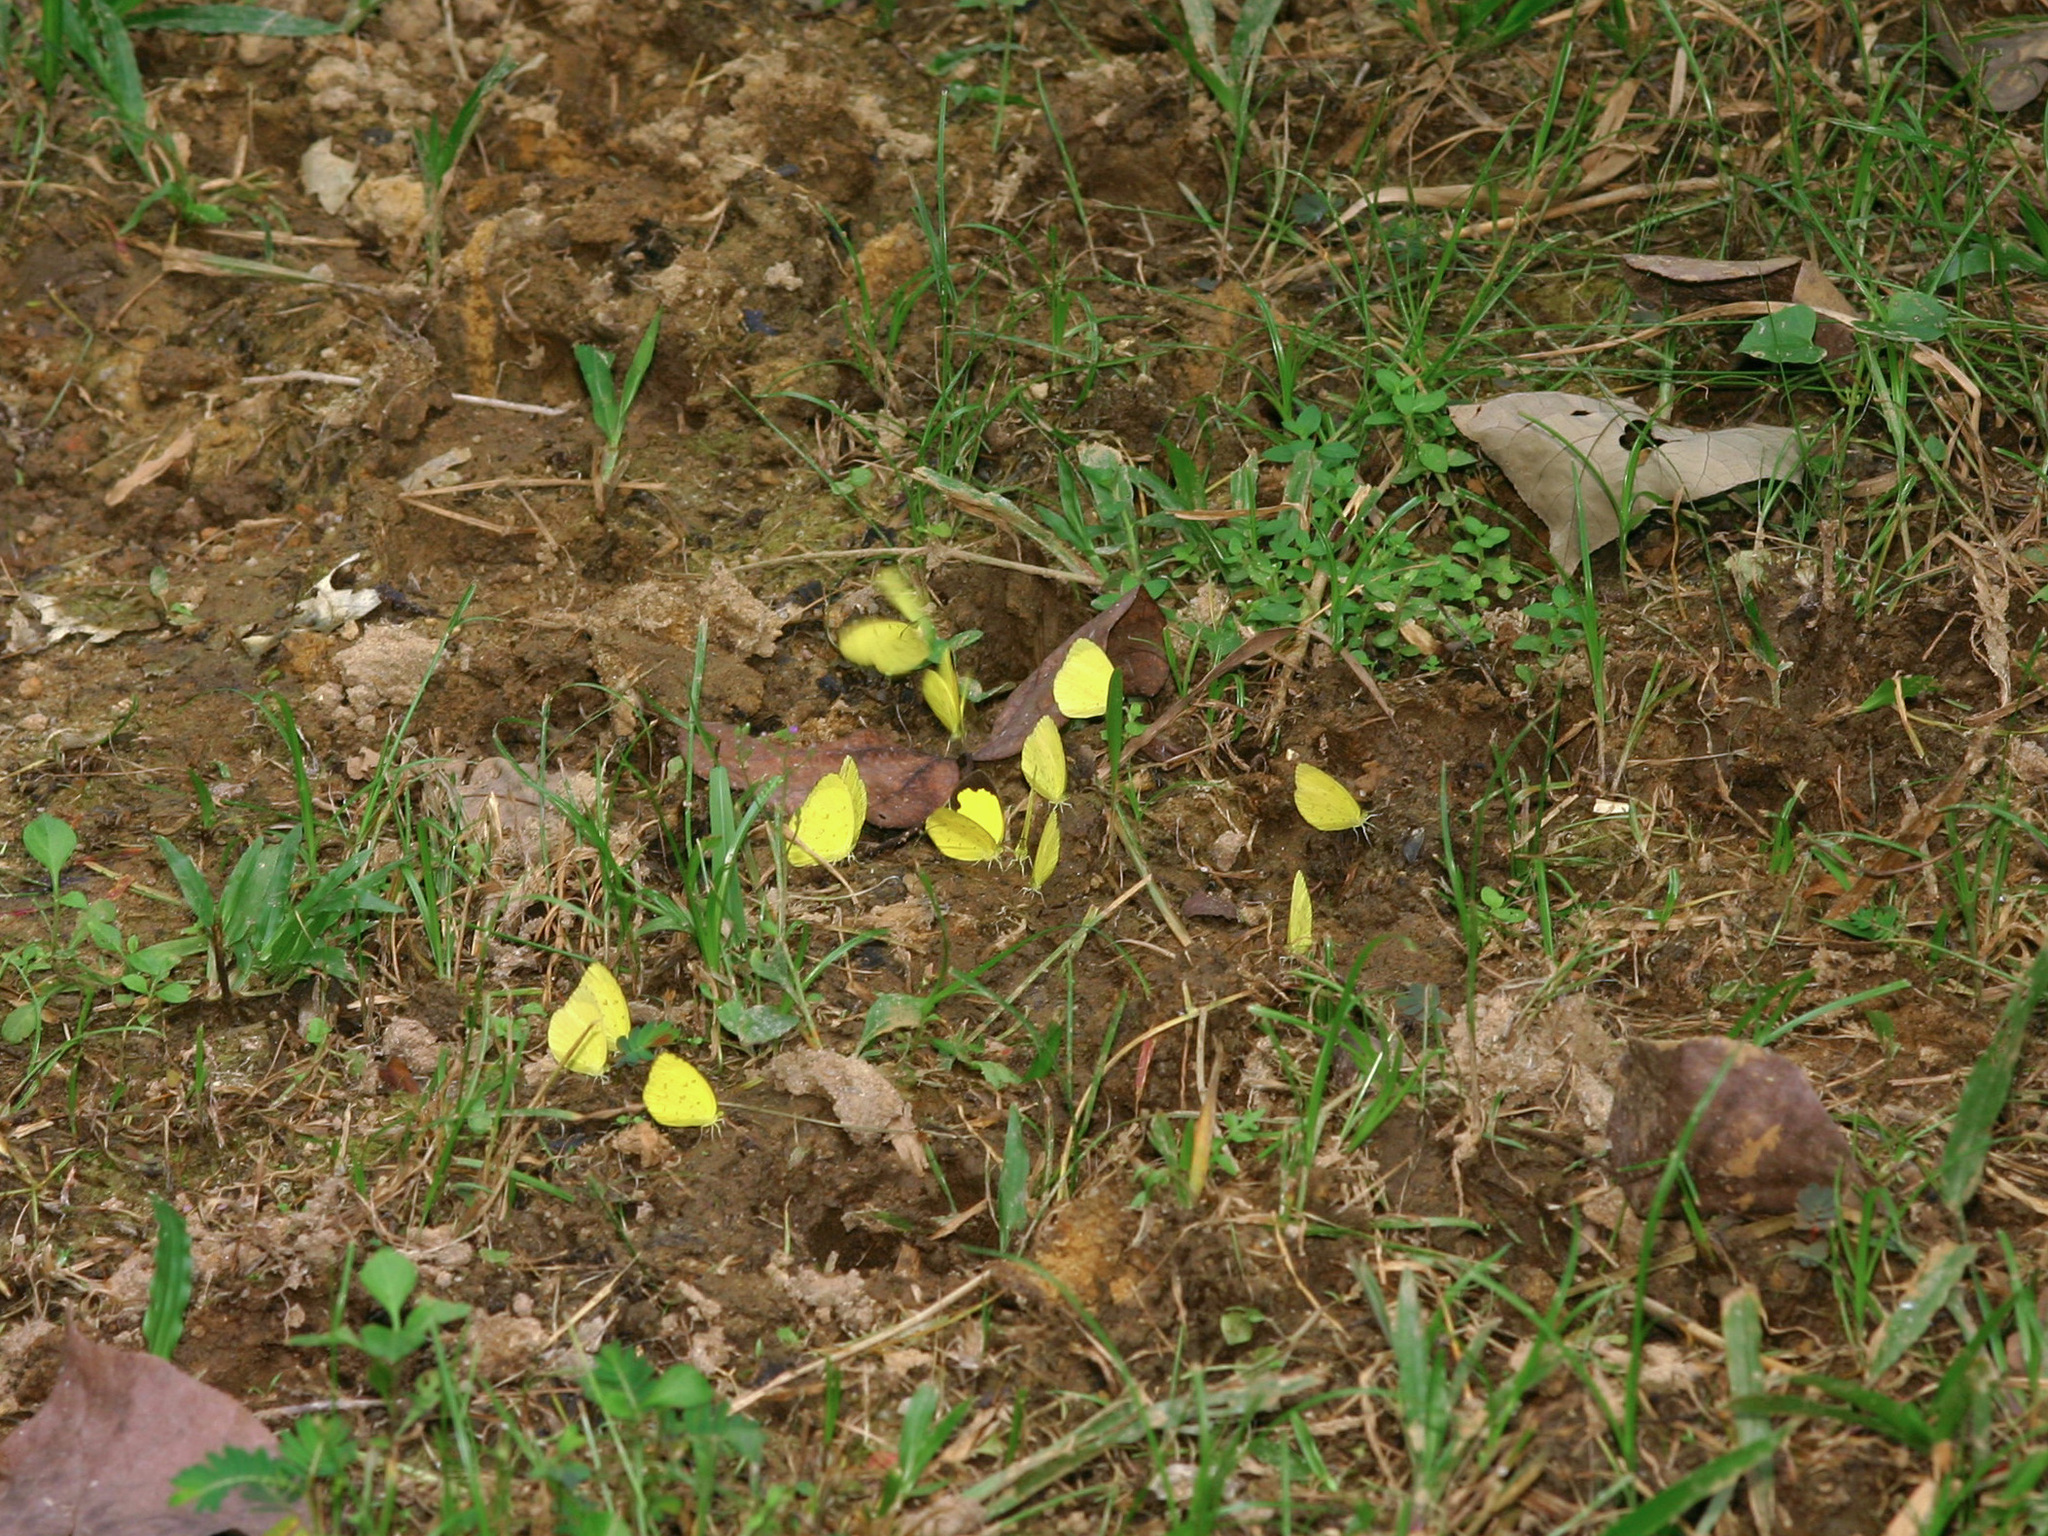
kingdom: Animalia
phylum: Arthropoda
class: Insecta
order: Lepidoptera
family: Pieridae
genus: Eurema
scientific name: Eurema hecabe
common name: Pale grass yellow
